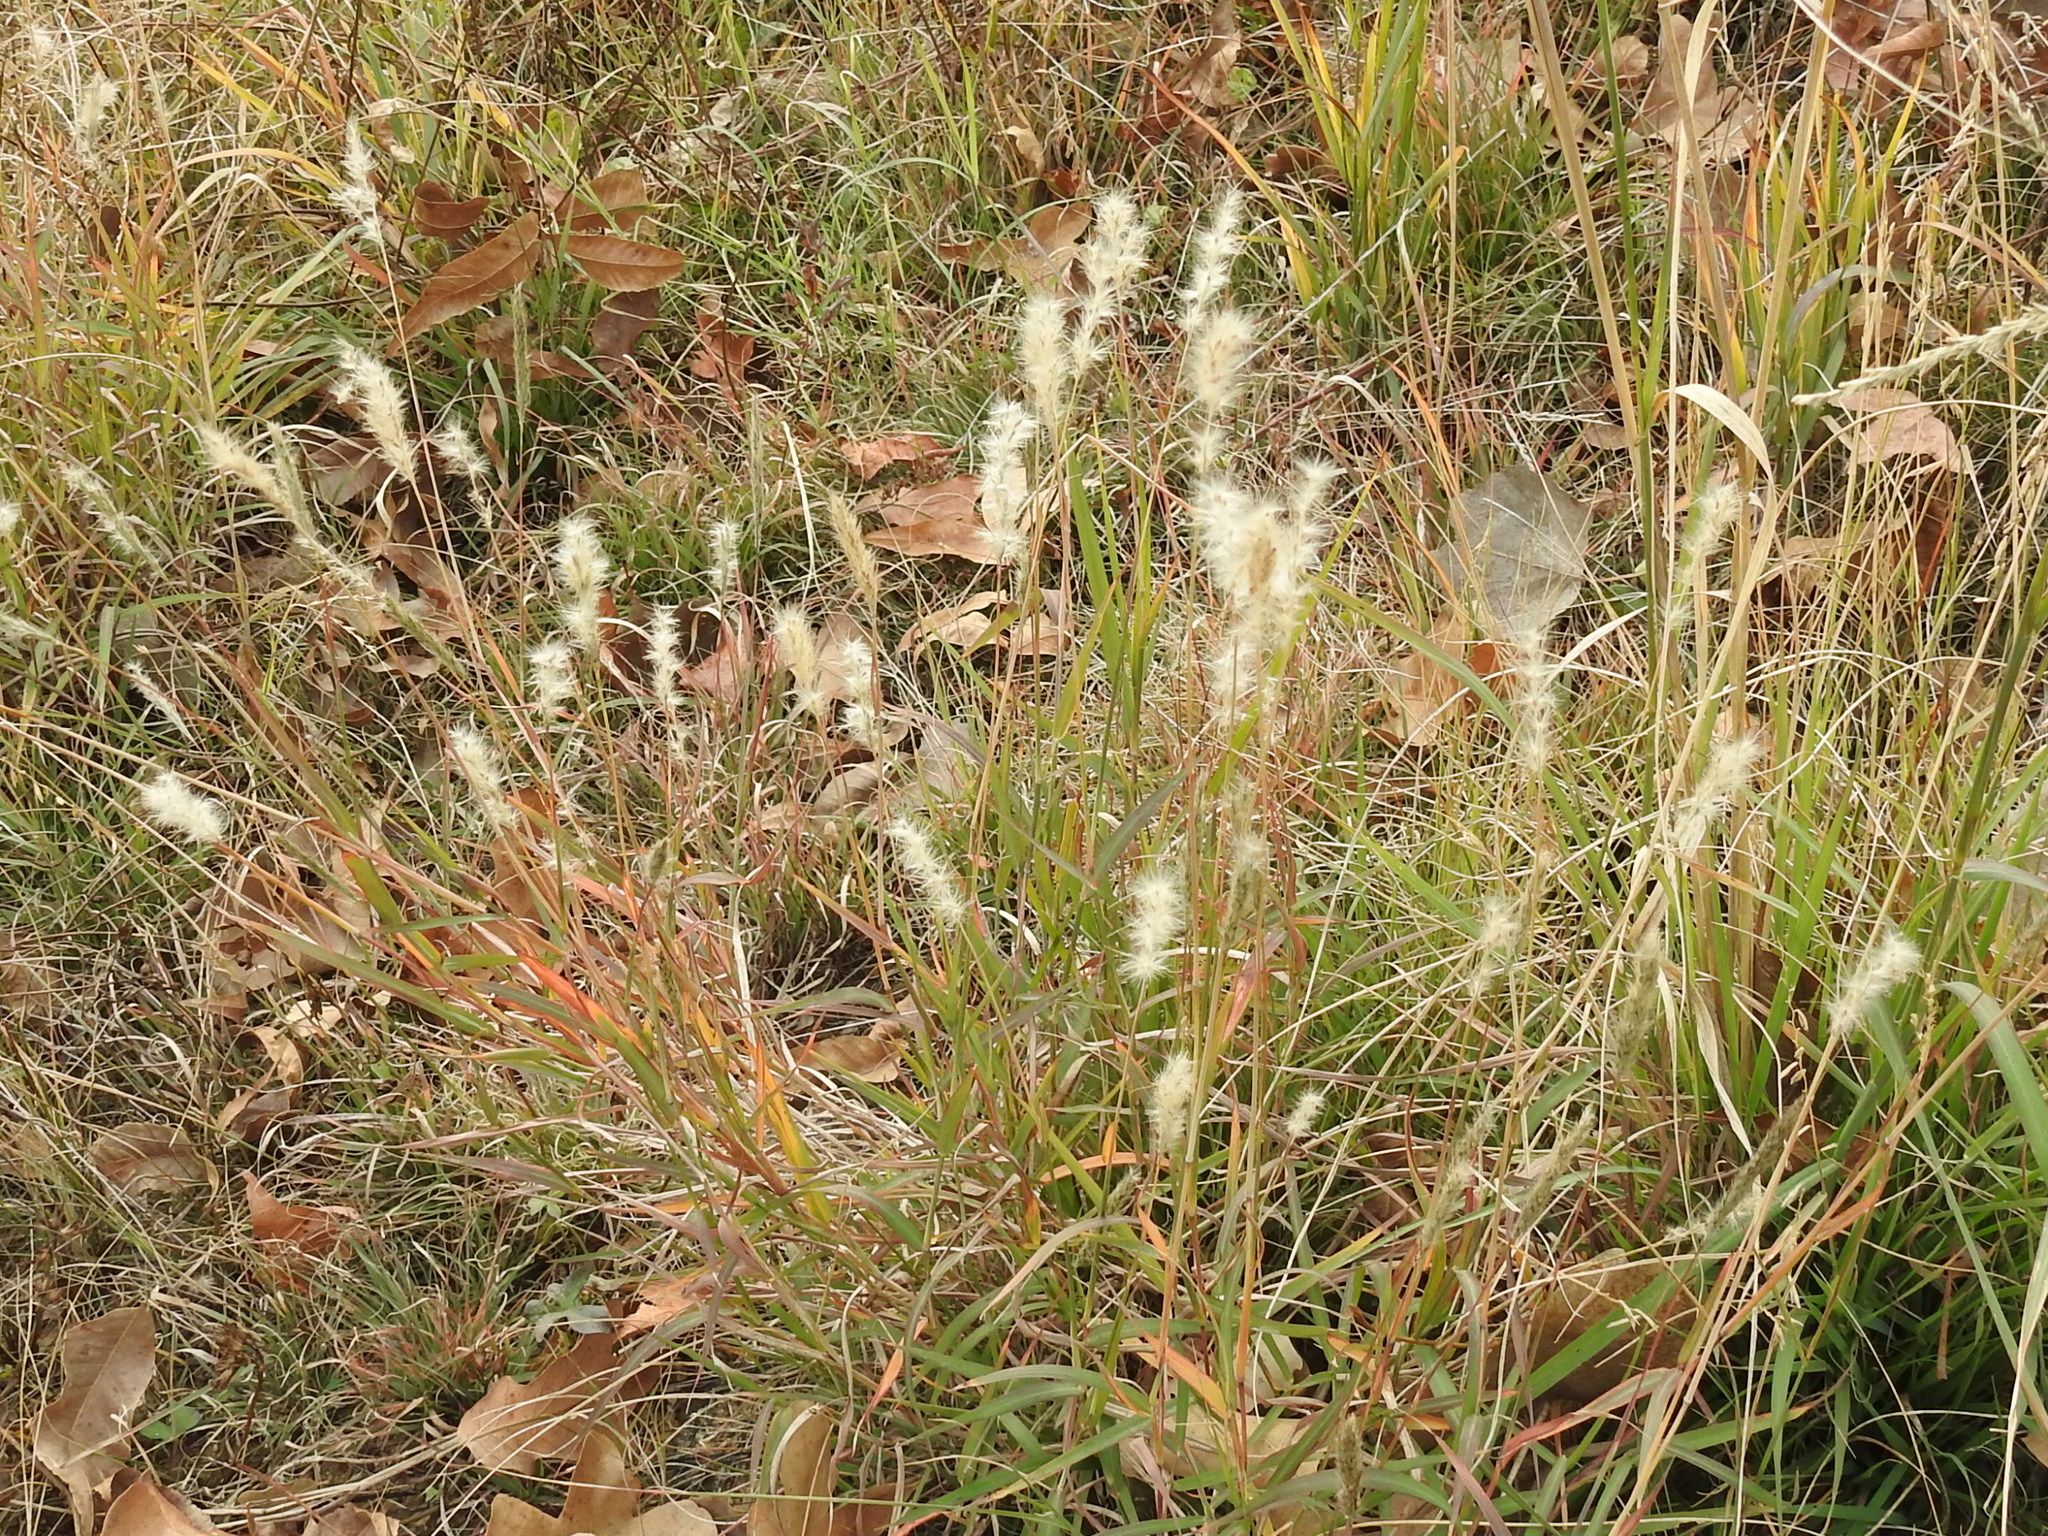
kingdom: Plantae
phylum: Tracheophyta
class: Liliopsida
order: Poales
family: Poaceae
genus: Bothriochloa
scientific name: Bothriochloa torreyana
